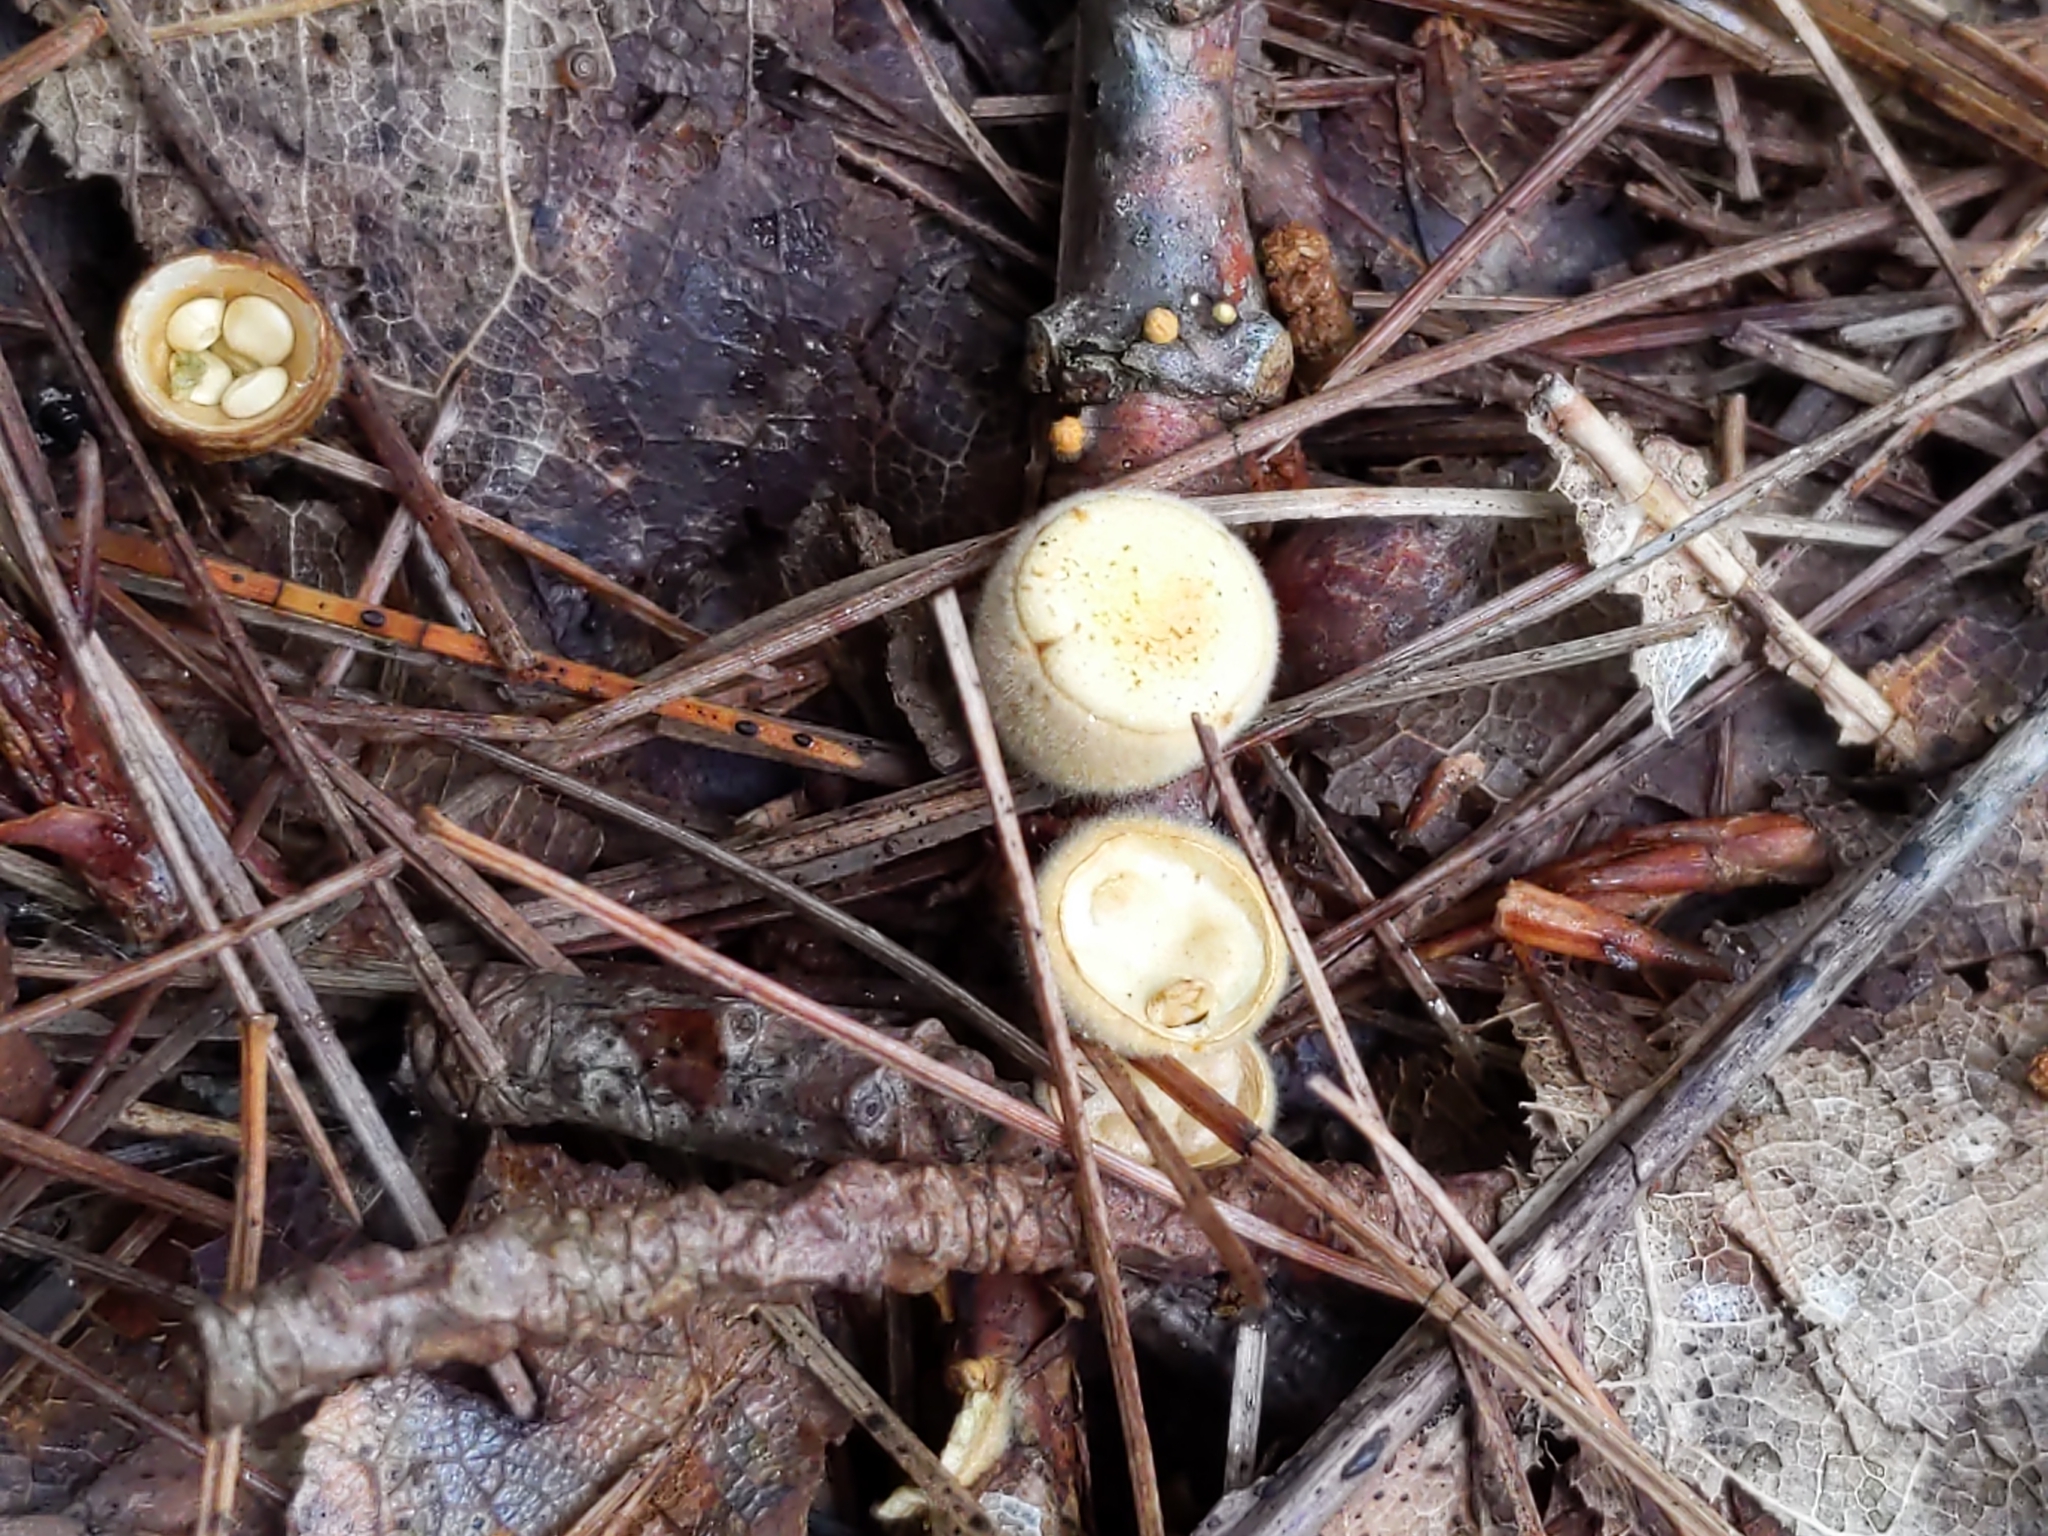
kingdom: Fungi
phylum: Basidiomycota
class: Agaricomycetes
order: Agaricales
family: Nidulariaceae
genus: Crucibulum
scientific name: Crucibulum laeve
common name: Common bird's nest
